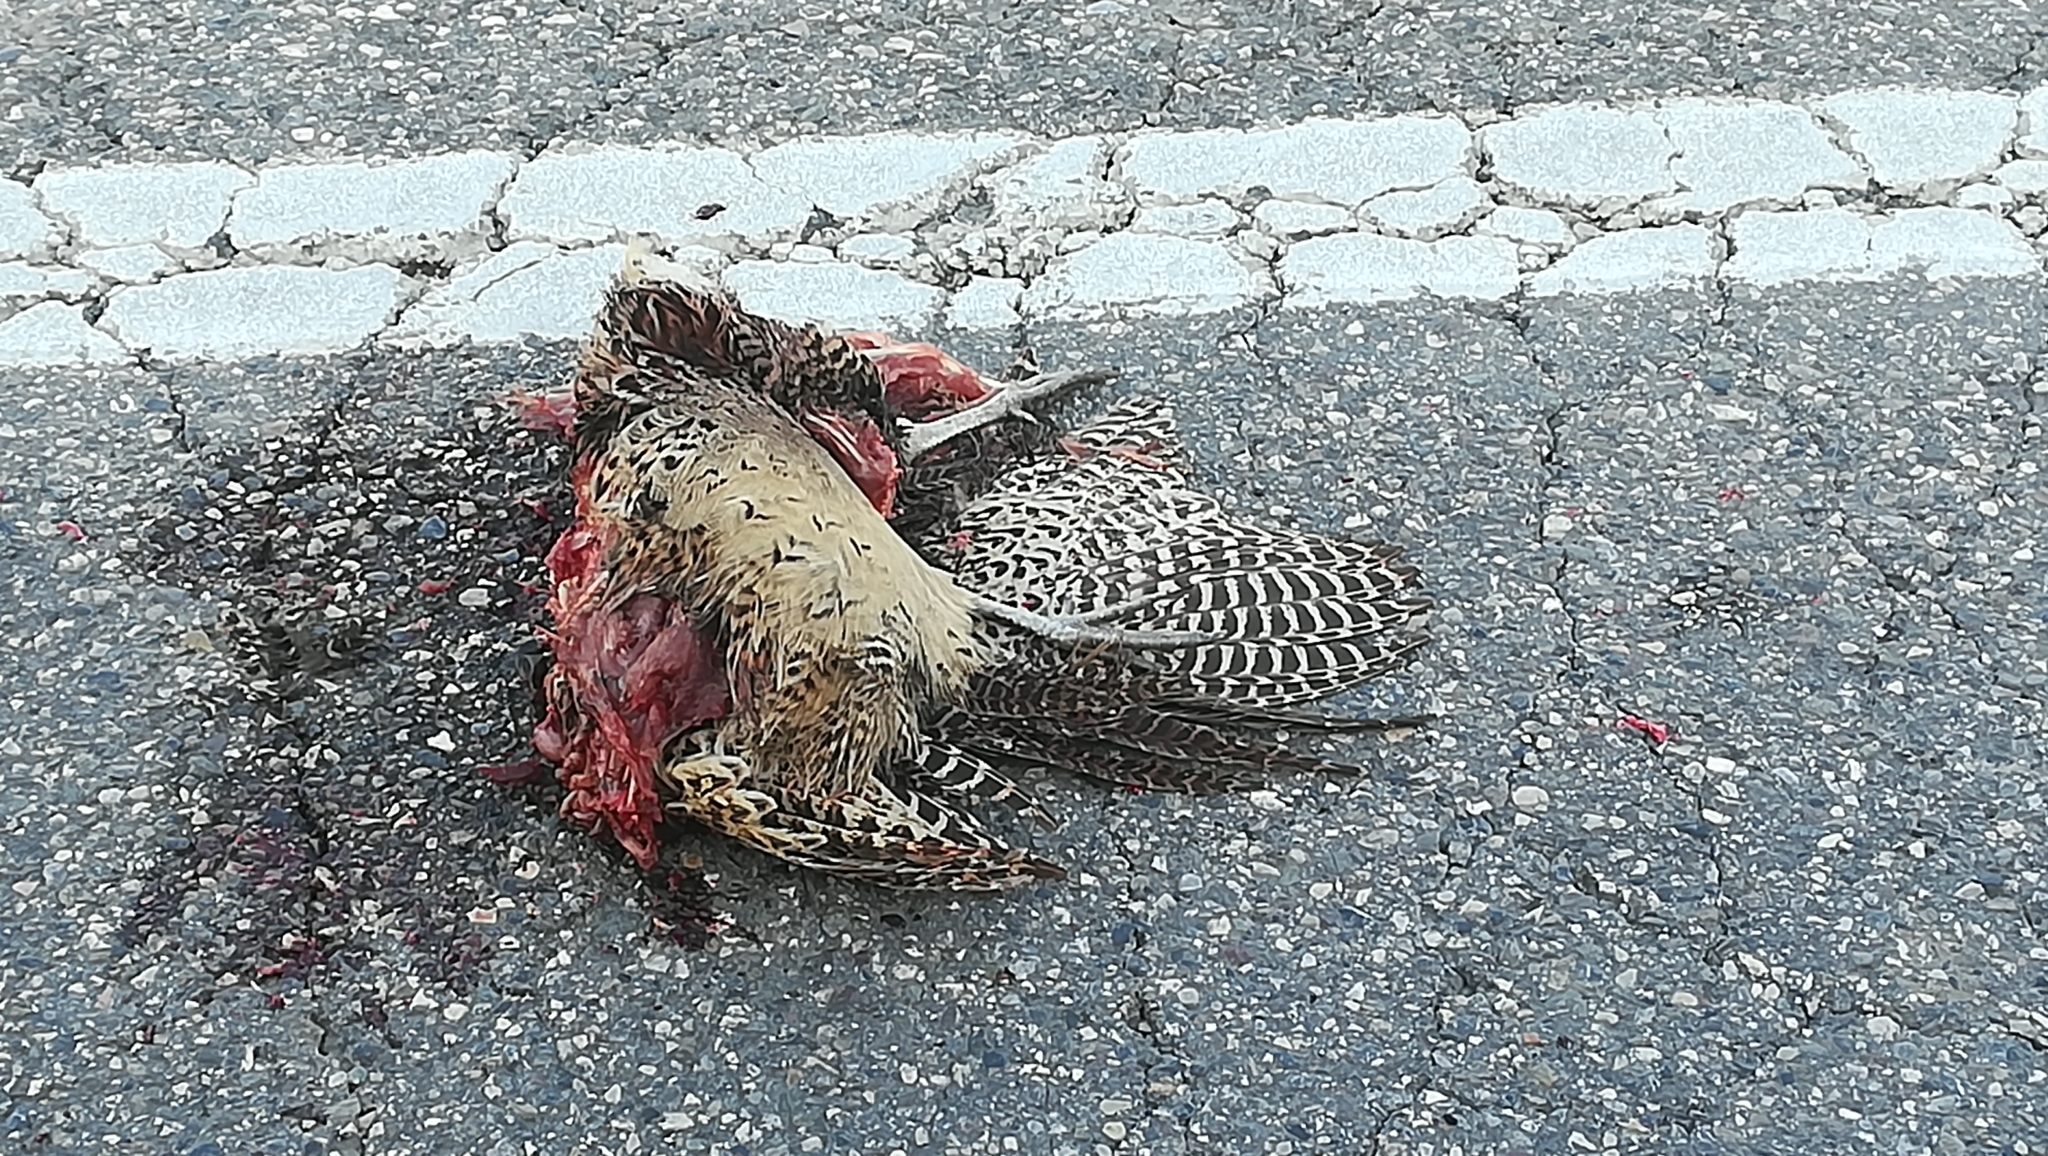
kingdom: Animalia
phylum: Chordata
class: Aves
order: Galliformes
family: Phasianidae
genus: Phasianus
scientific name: Phasianus colchicus
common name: Common pheasant
